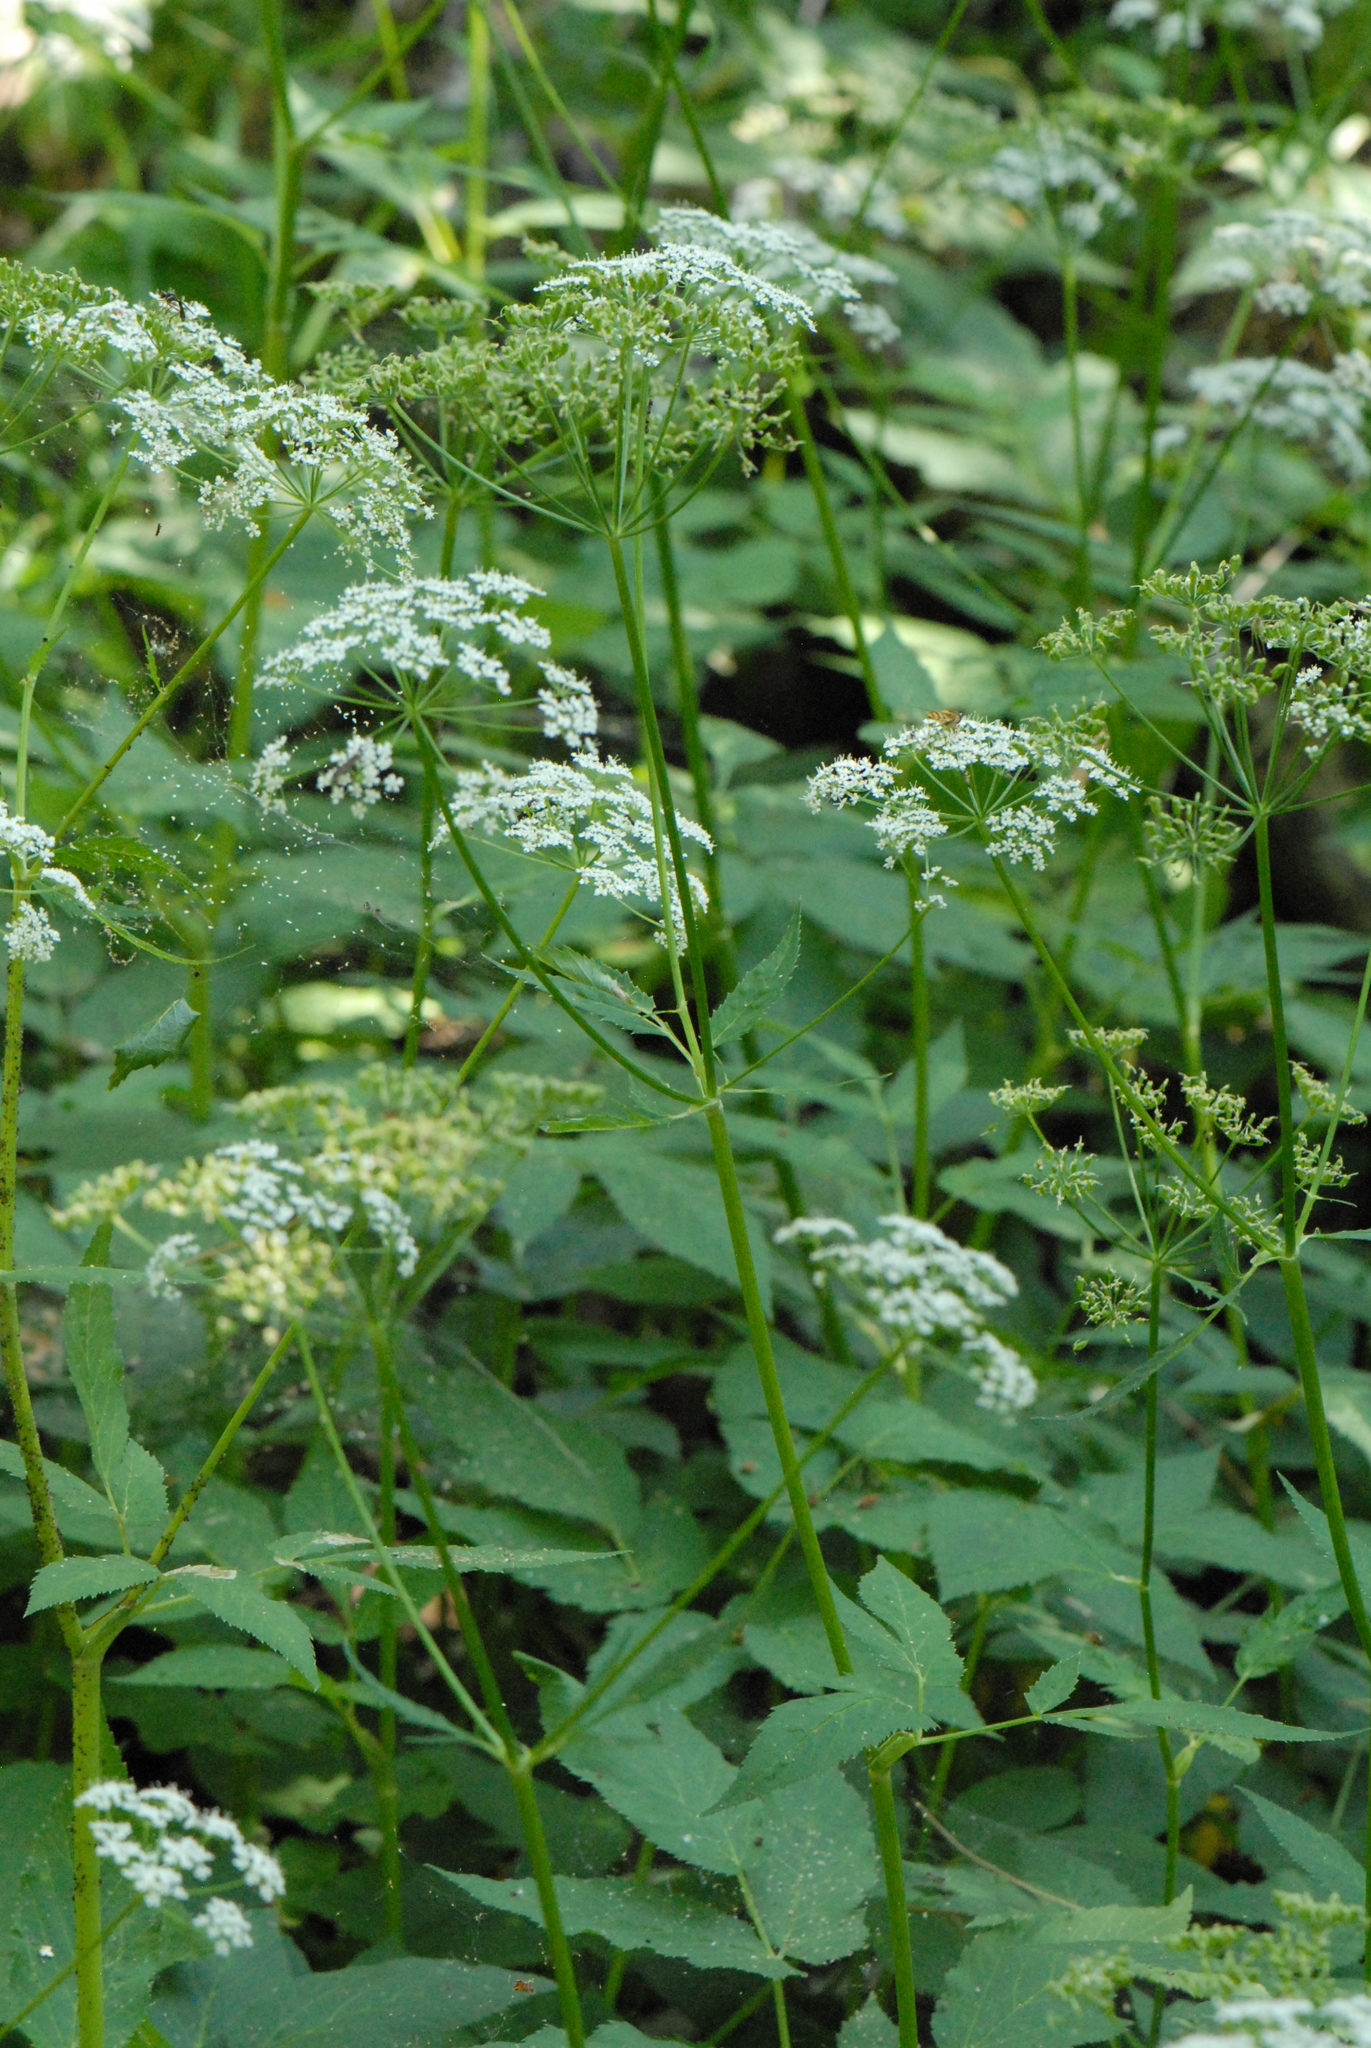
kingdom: Plantae
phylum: Tracheophyta
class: Magnoliopsida
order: Apiales
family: Apiaceae
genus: Aegopodium
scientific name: Aegopodium podagraria
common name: Ground-elder
